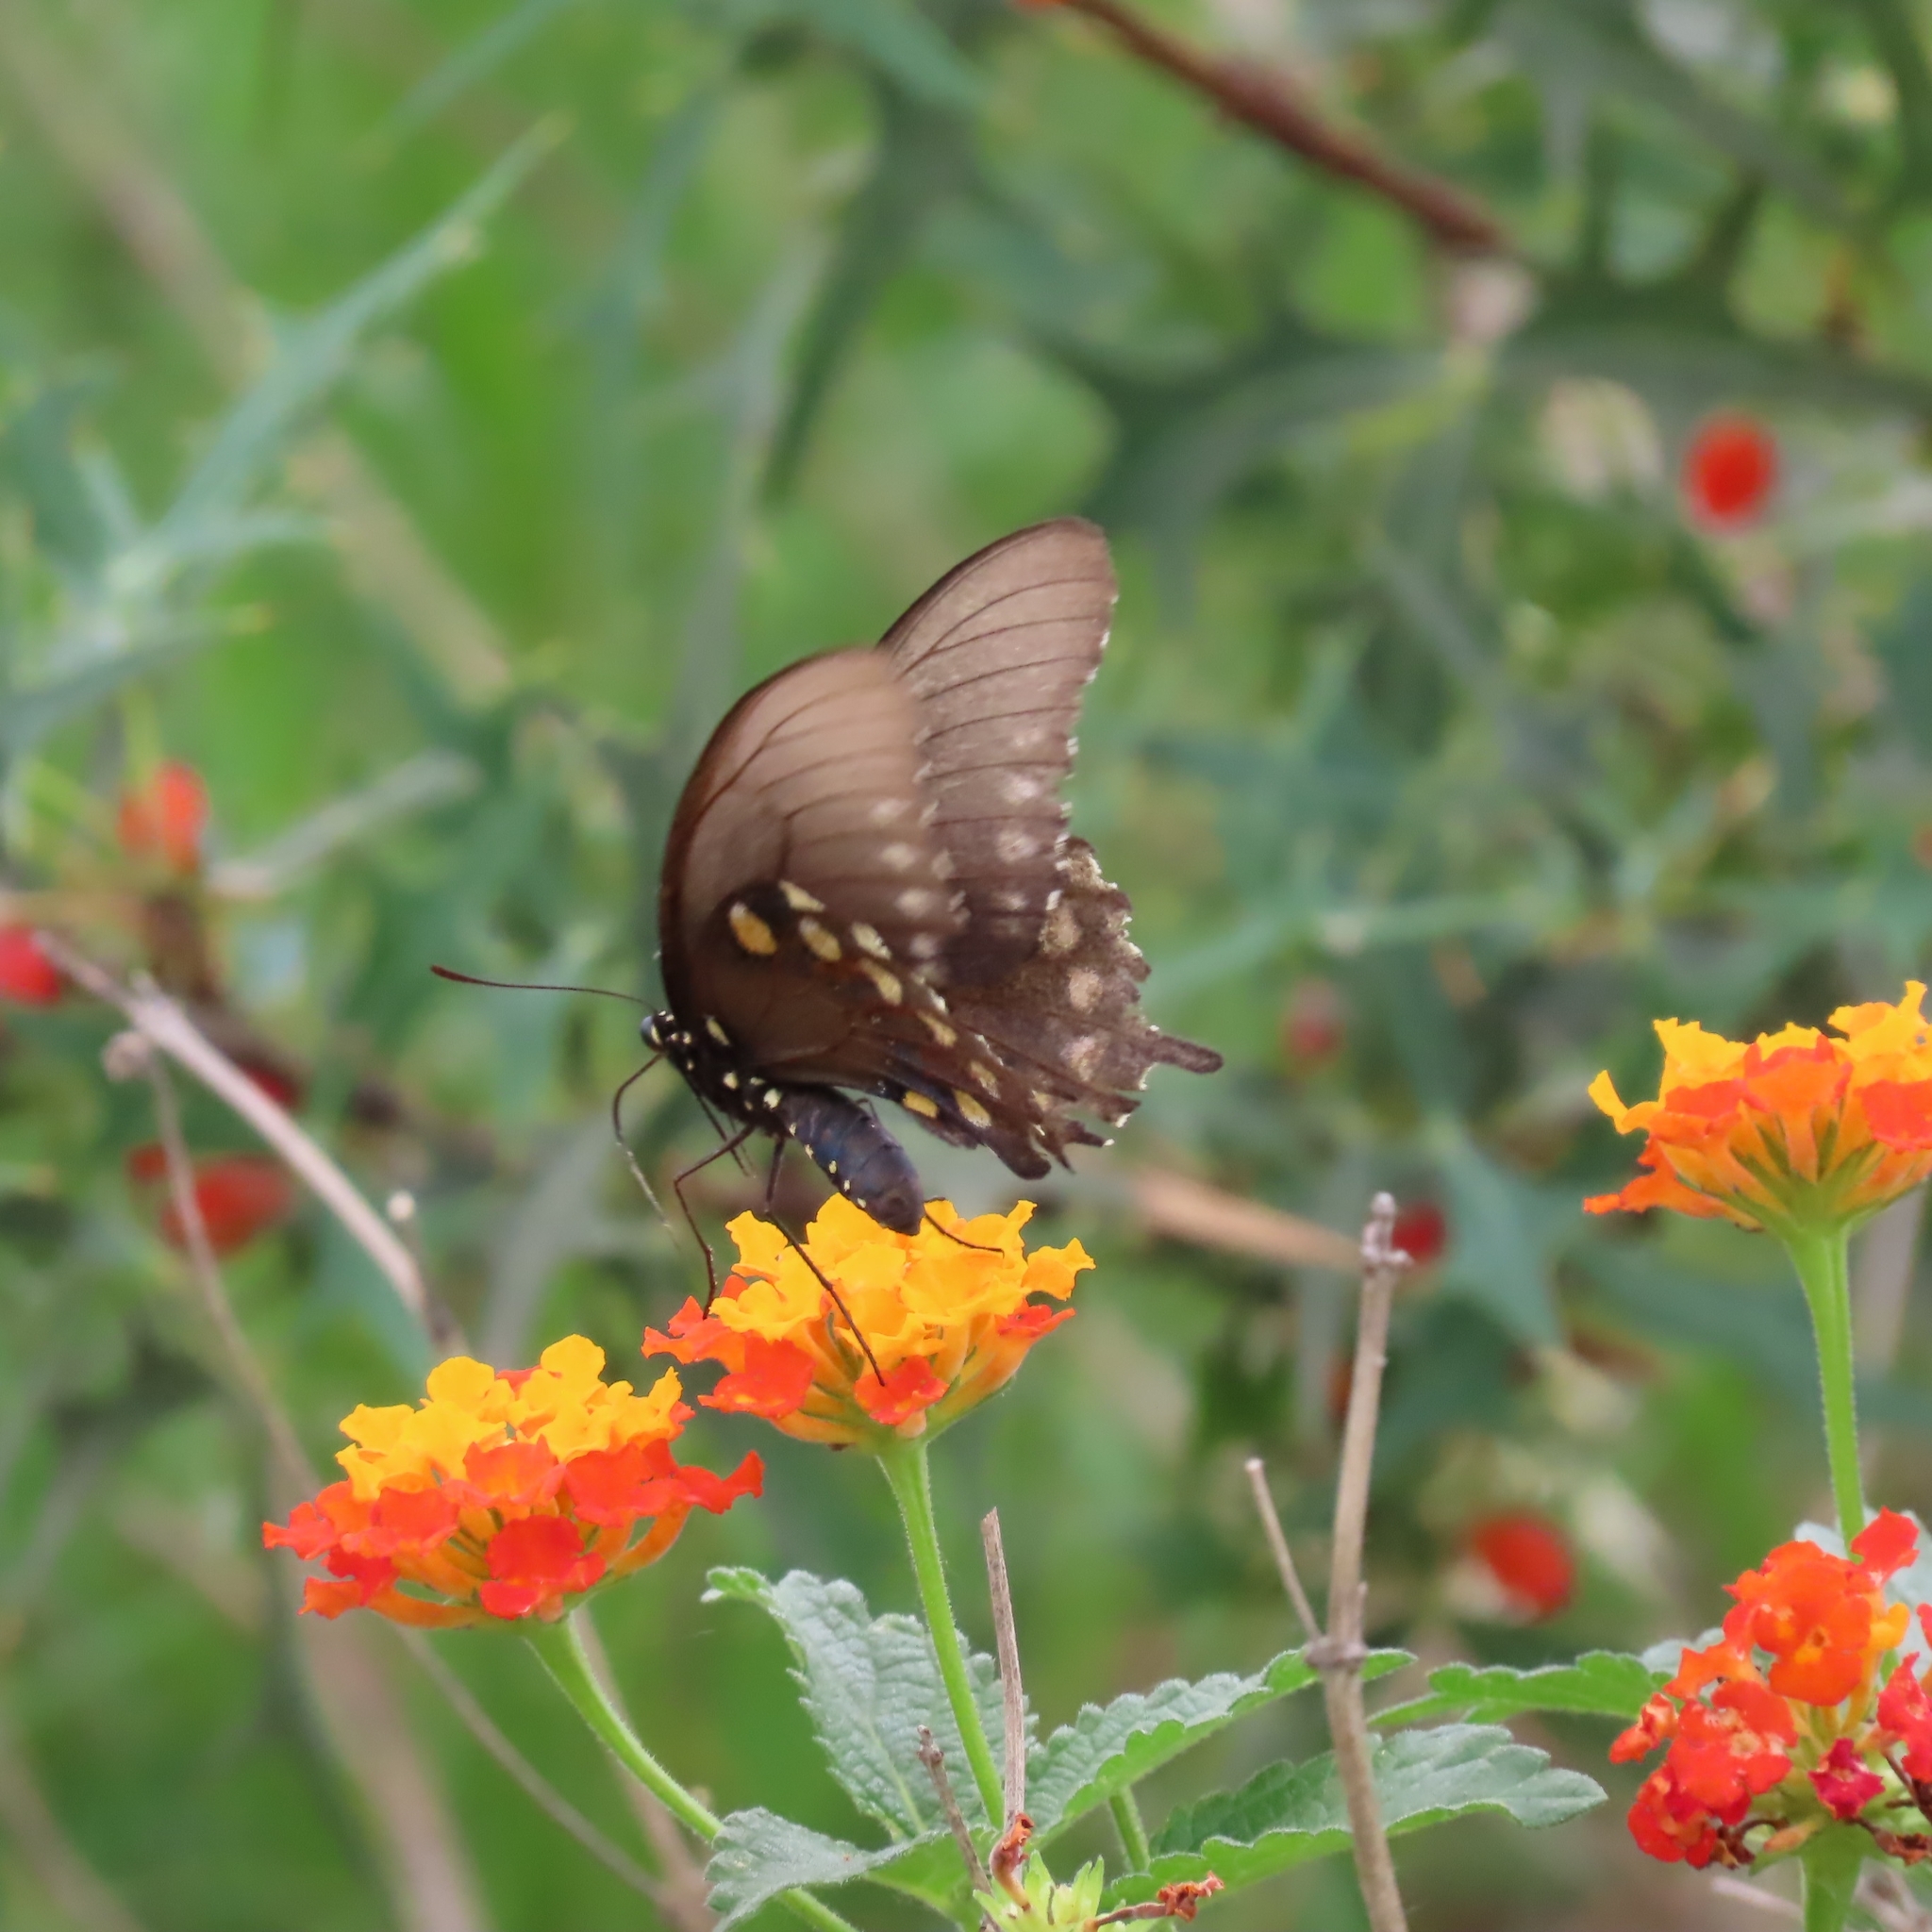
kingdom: Animalia
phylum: Arthropoda
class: Insecta
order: Lepidoptera
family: Papilionidae
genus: Battus
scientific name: Battus philenor
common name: Pipevine swallowtail
